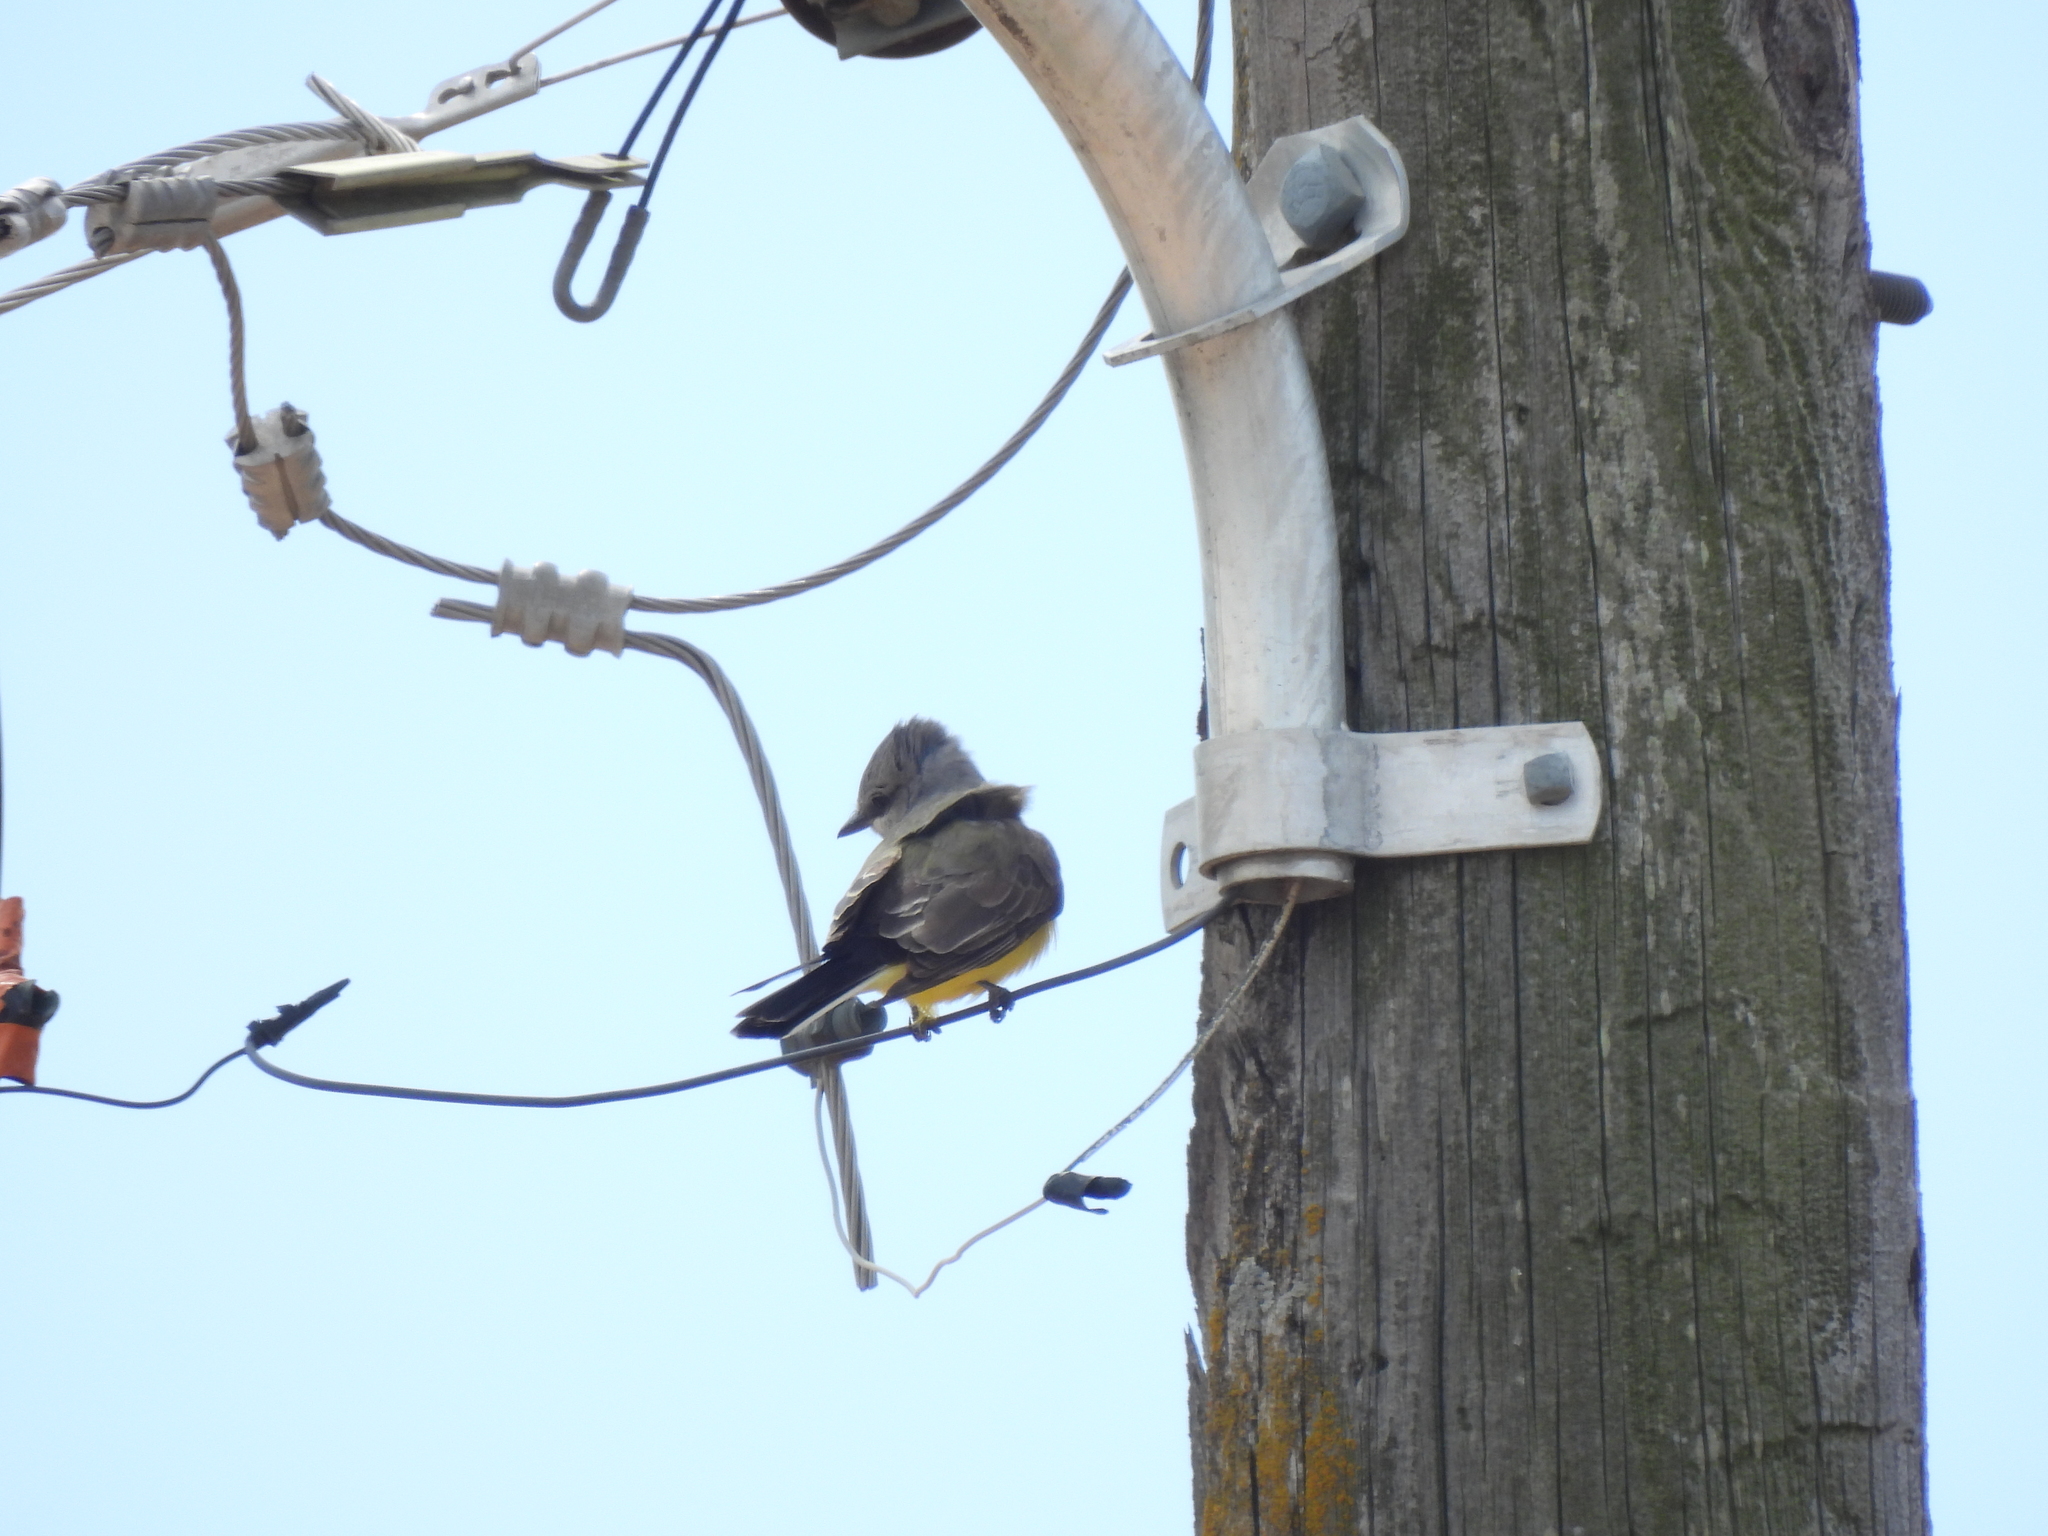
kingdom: Animalia
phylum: Chordata
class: Aves
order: Passeriformes
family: Tyrannidae
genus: Tyrannus
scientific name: Tyrannus verticalis
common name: Western kingbird
